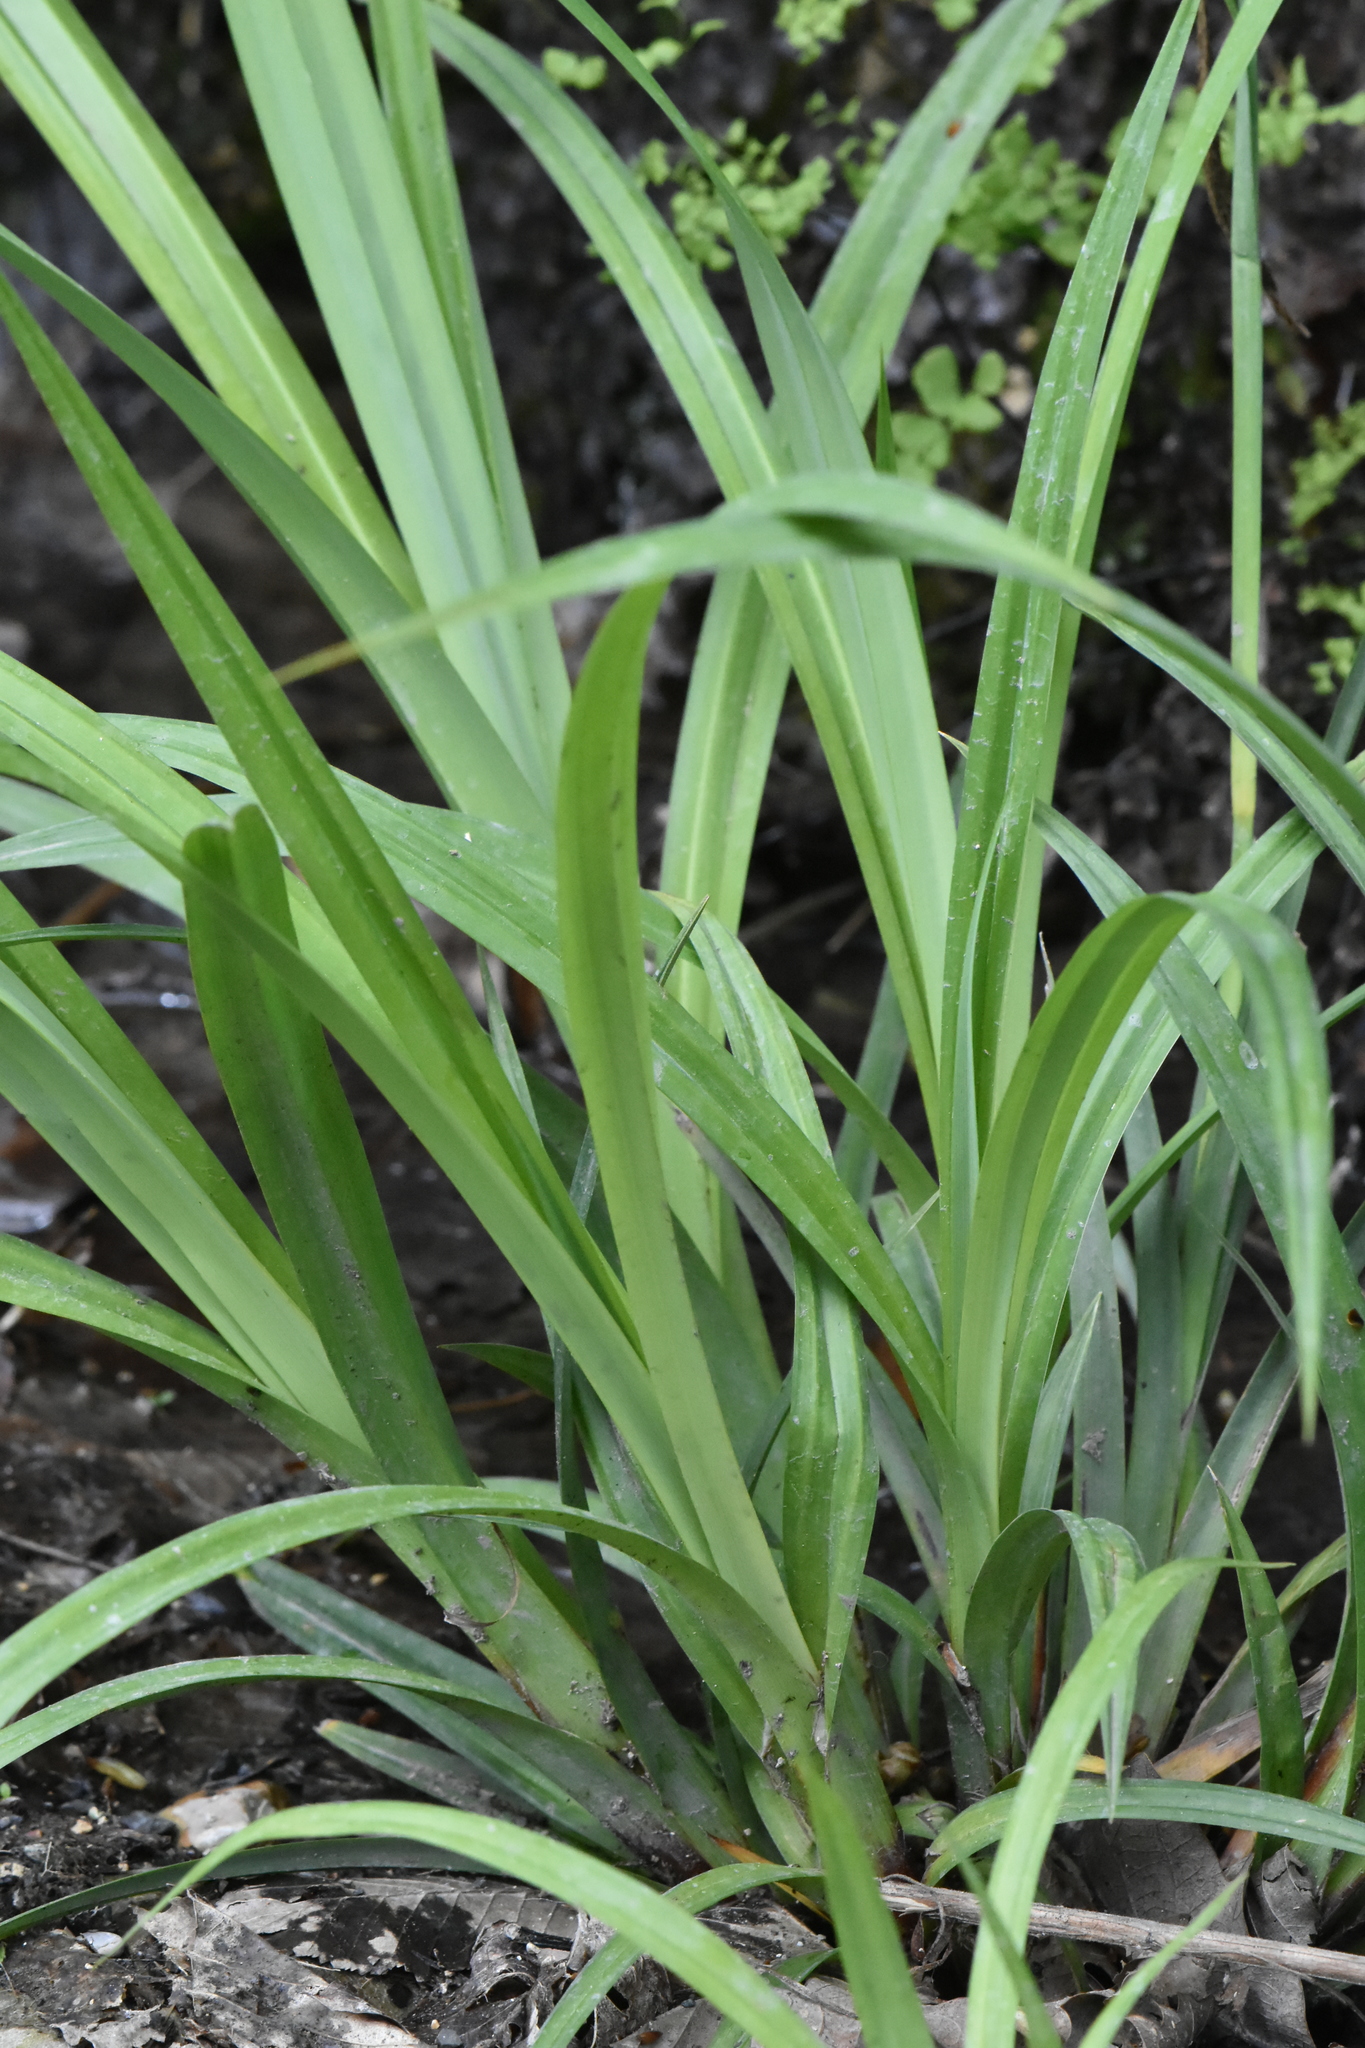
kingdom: Plantae
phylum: Tracheophyta
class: Liliopsida
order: Poales
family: Cyperaceae
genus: Carex
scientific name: Carex pendula
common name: Pendulous sedge
